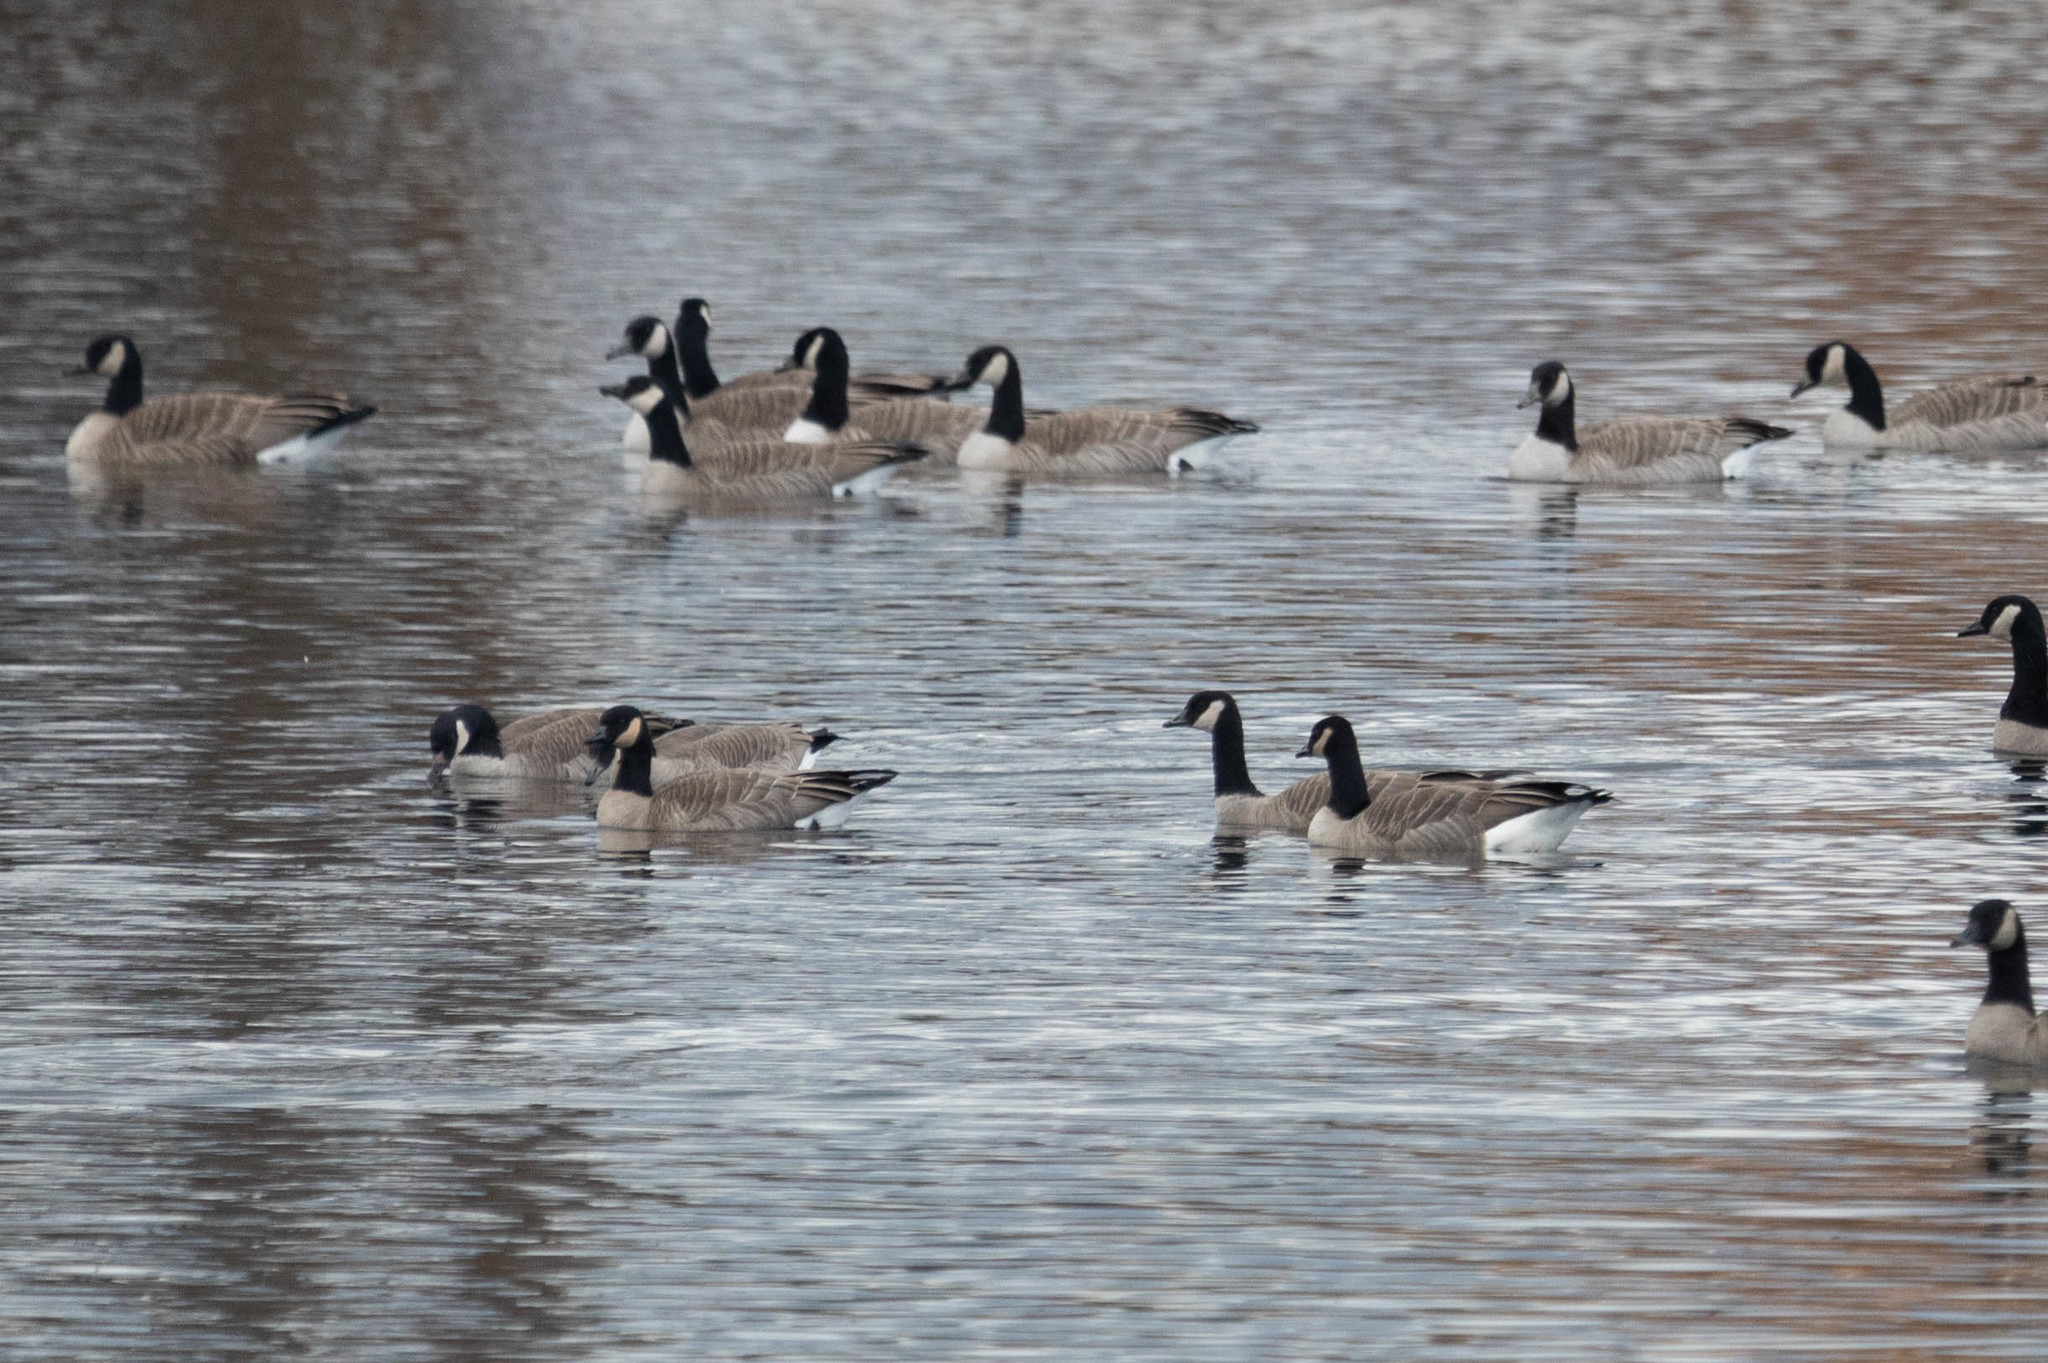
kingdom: Animalia
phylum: Chordata
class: Aves
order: Anseriformes
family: Anatidae
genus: Branta
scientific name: Branta canadensis
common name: Canada goose
